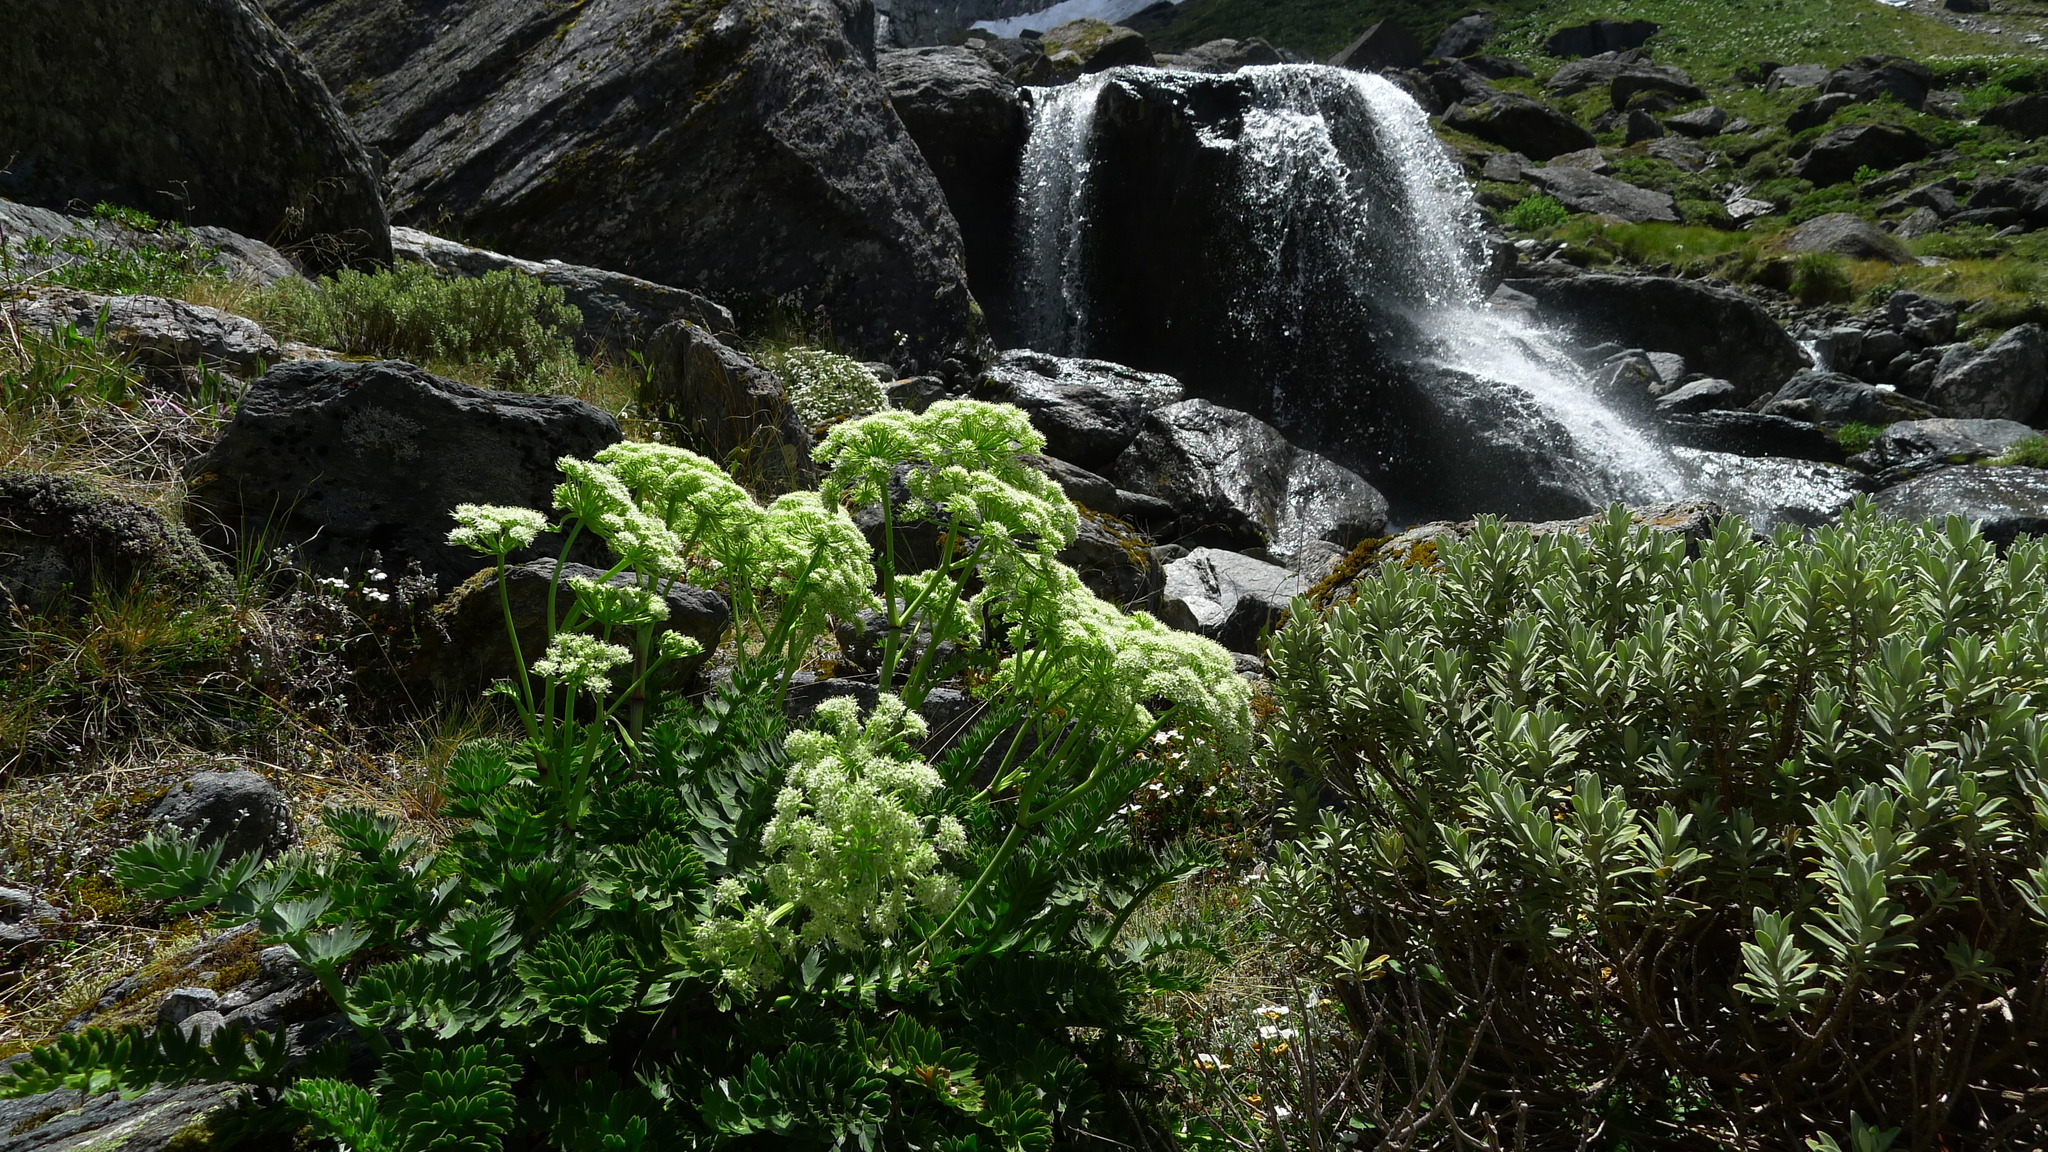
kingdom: Plantae
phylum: Tracheophyta
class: Magnoliopsida
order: Apiales
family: Apiaceae
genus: Anisotome
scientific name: Anisotome pilifera
